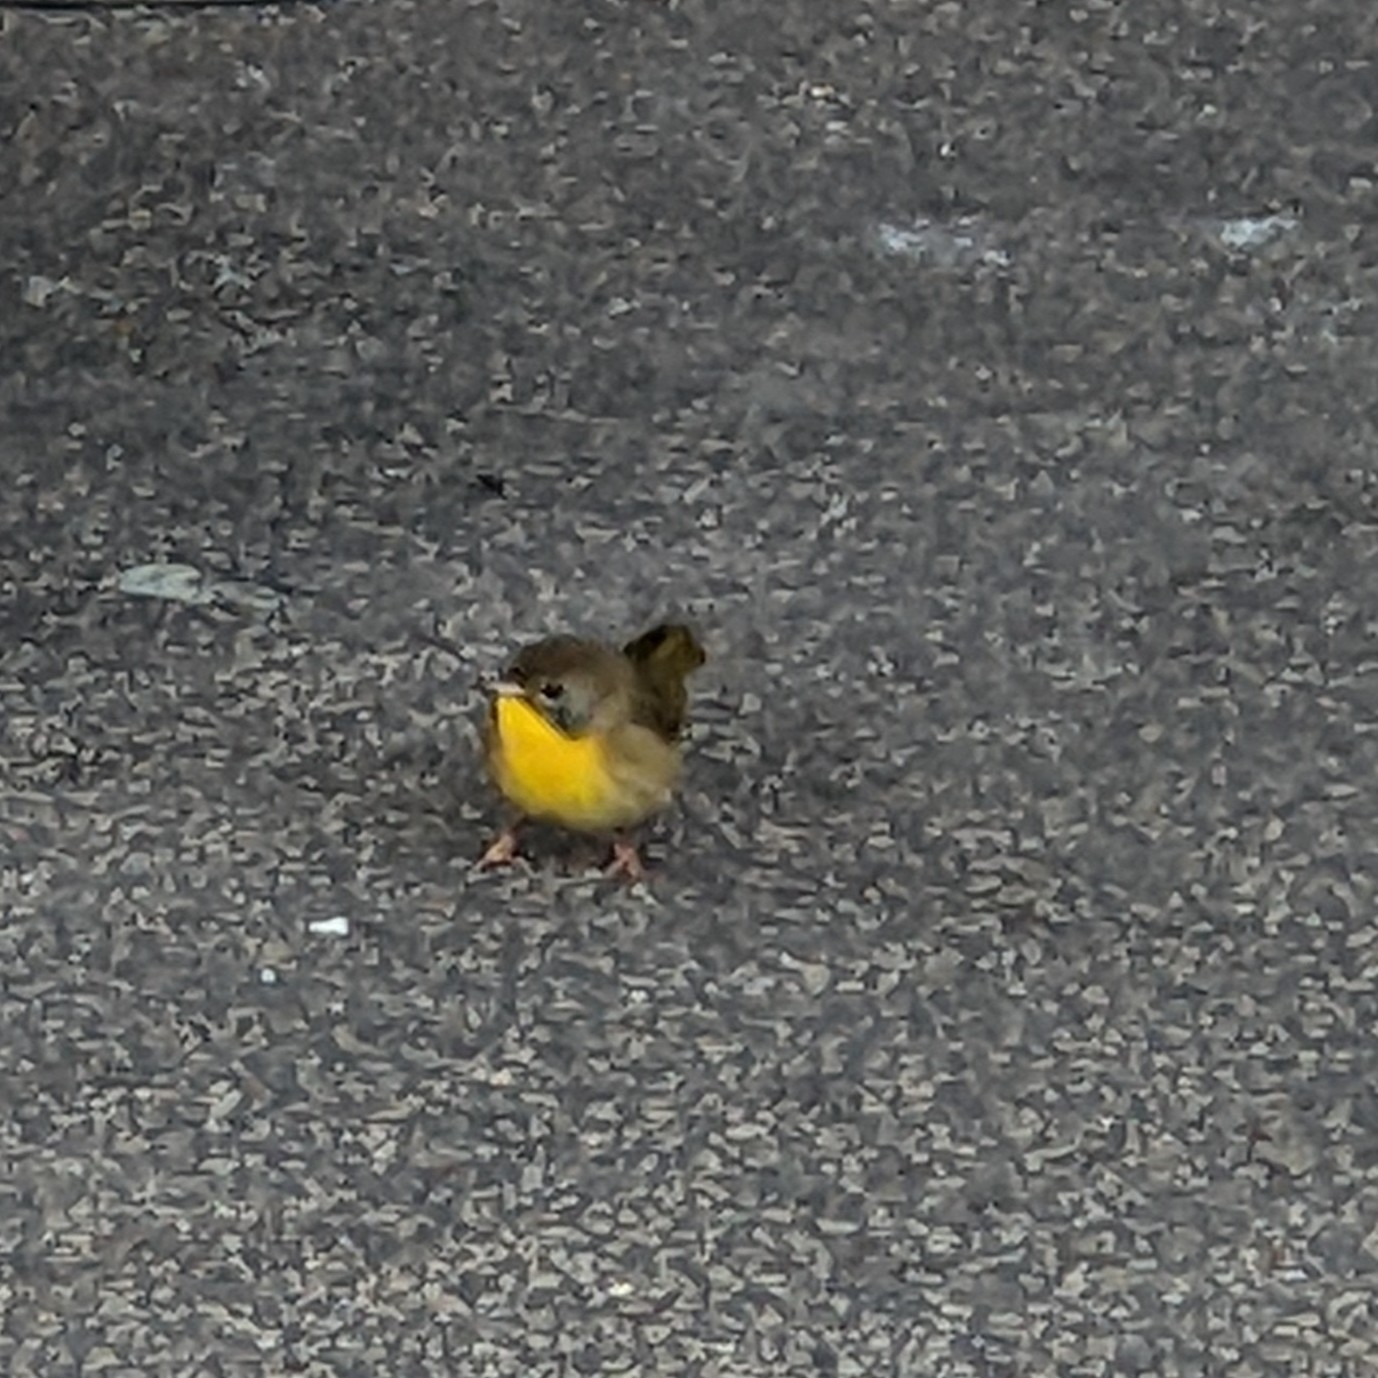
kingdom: Animalia
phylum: Chordata
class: Aves
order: Passeriformes
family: Parulidae
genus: Geothlypis
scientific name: Geothlypis trichas
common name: Common yellowthroat
